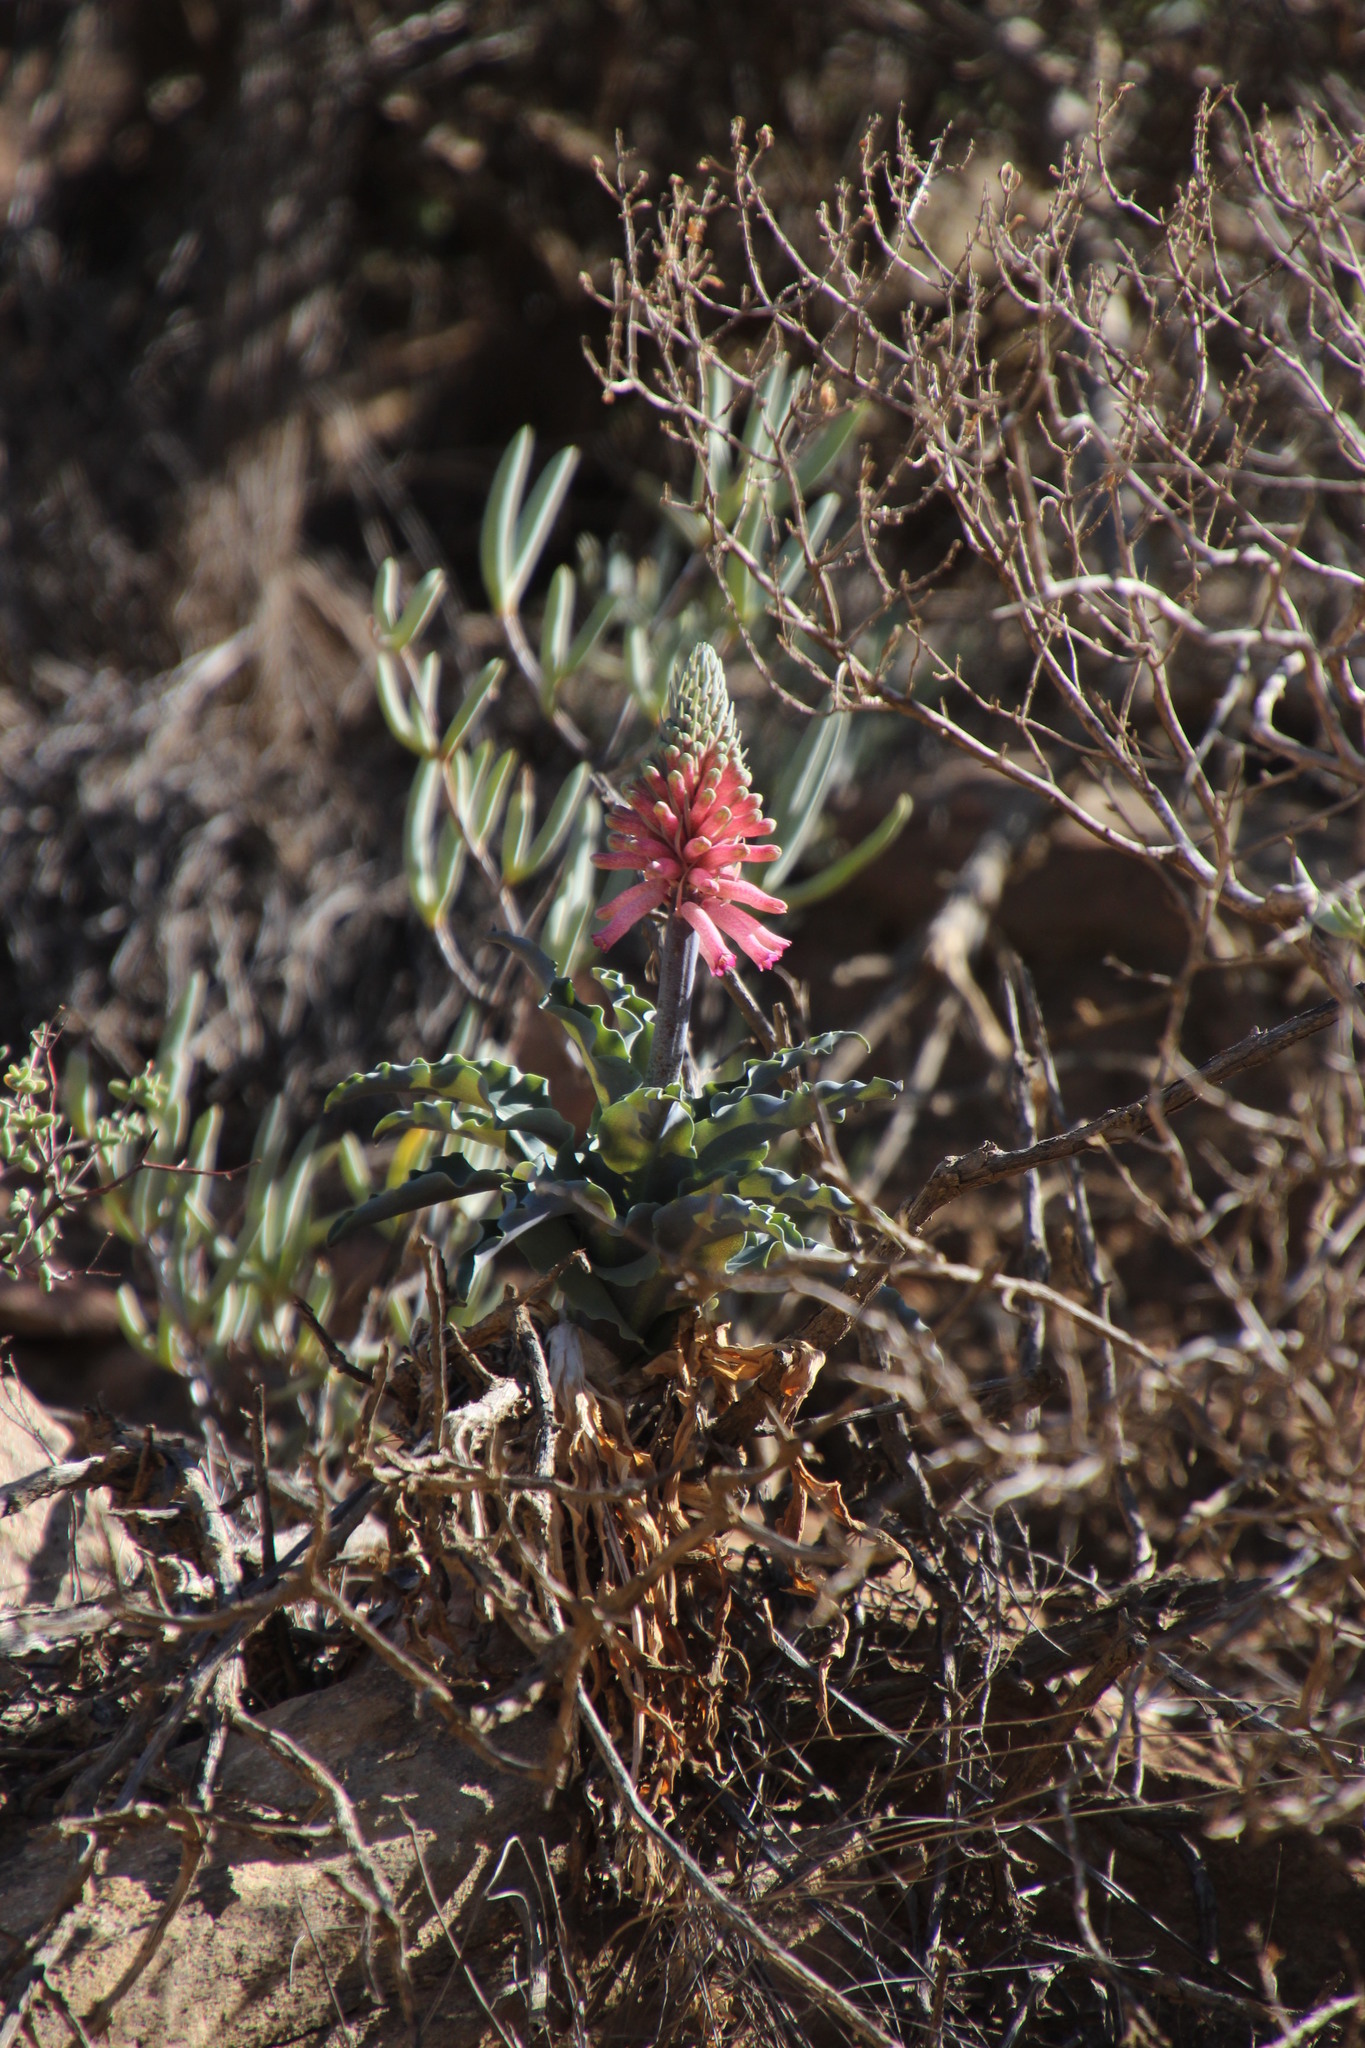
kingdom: Plantae
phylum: Tracheophyta
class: Liliopsida
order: Asparagales
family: Asparagaceae
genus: Veltheimia
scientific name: Veltheimia capensis
